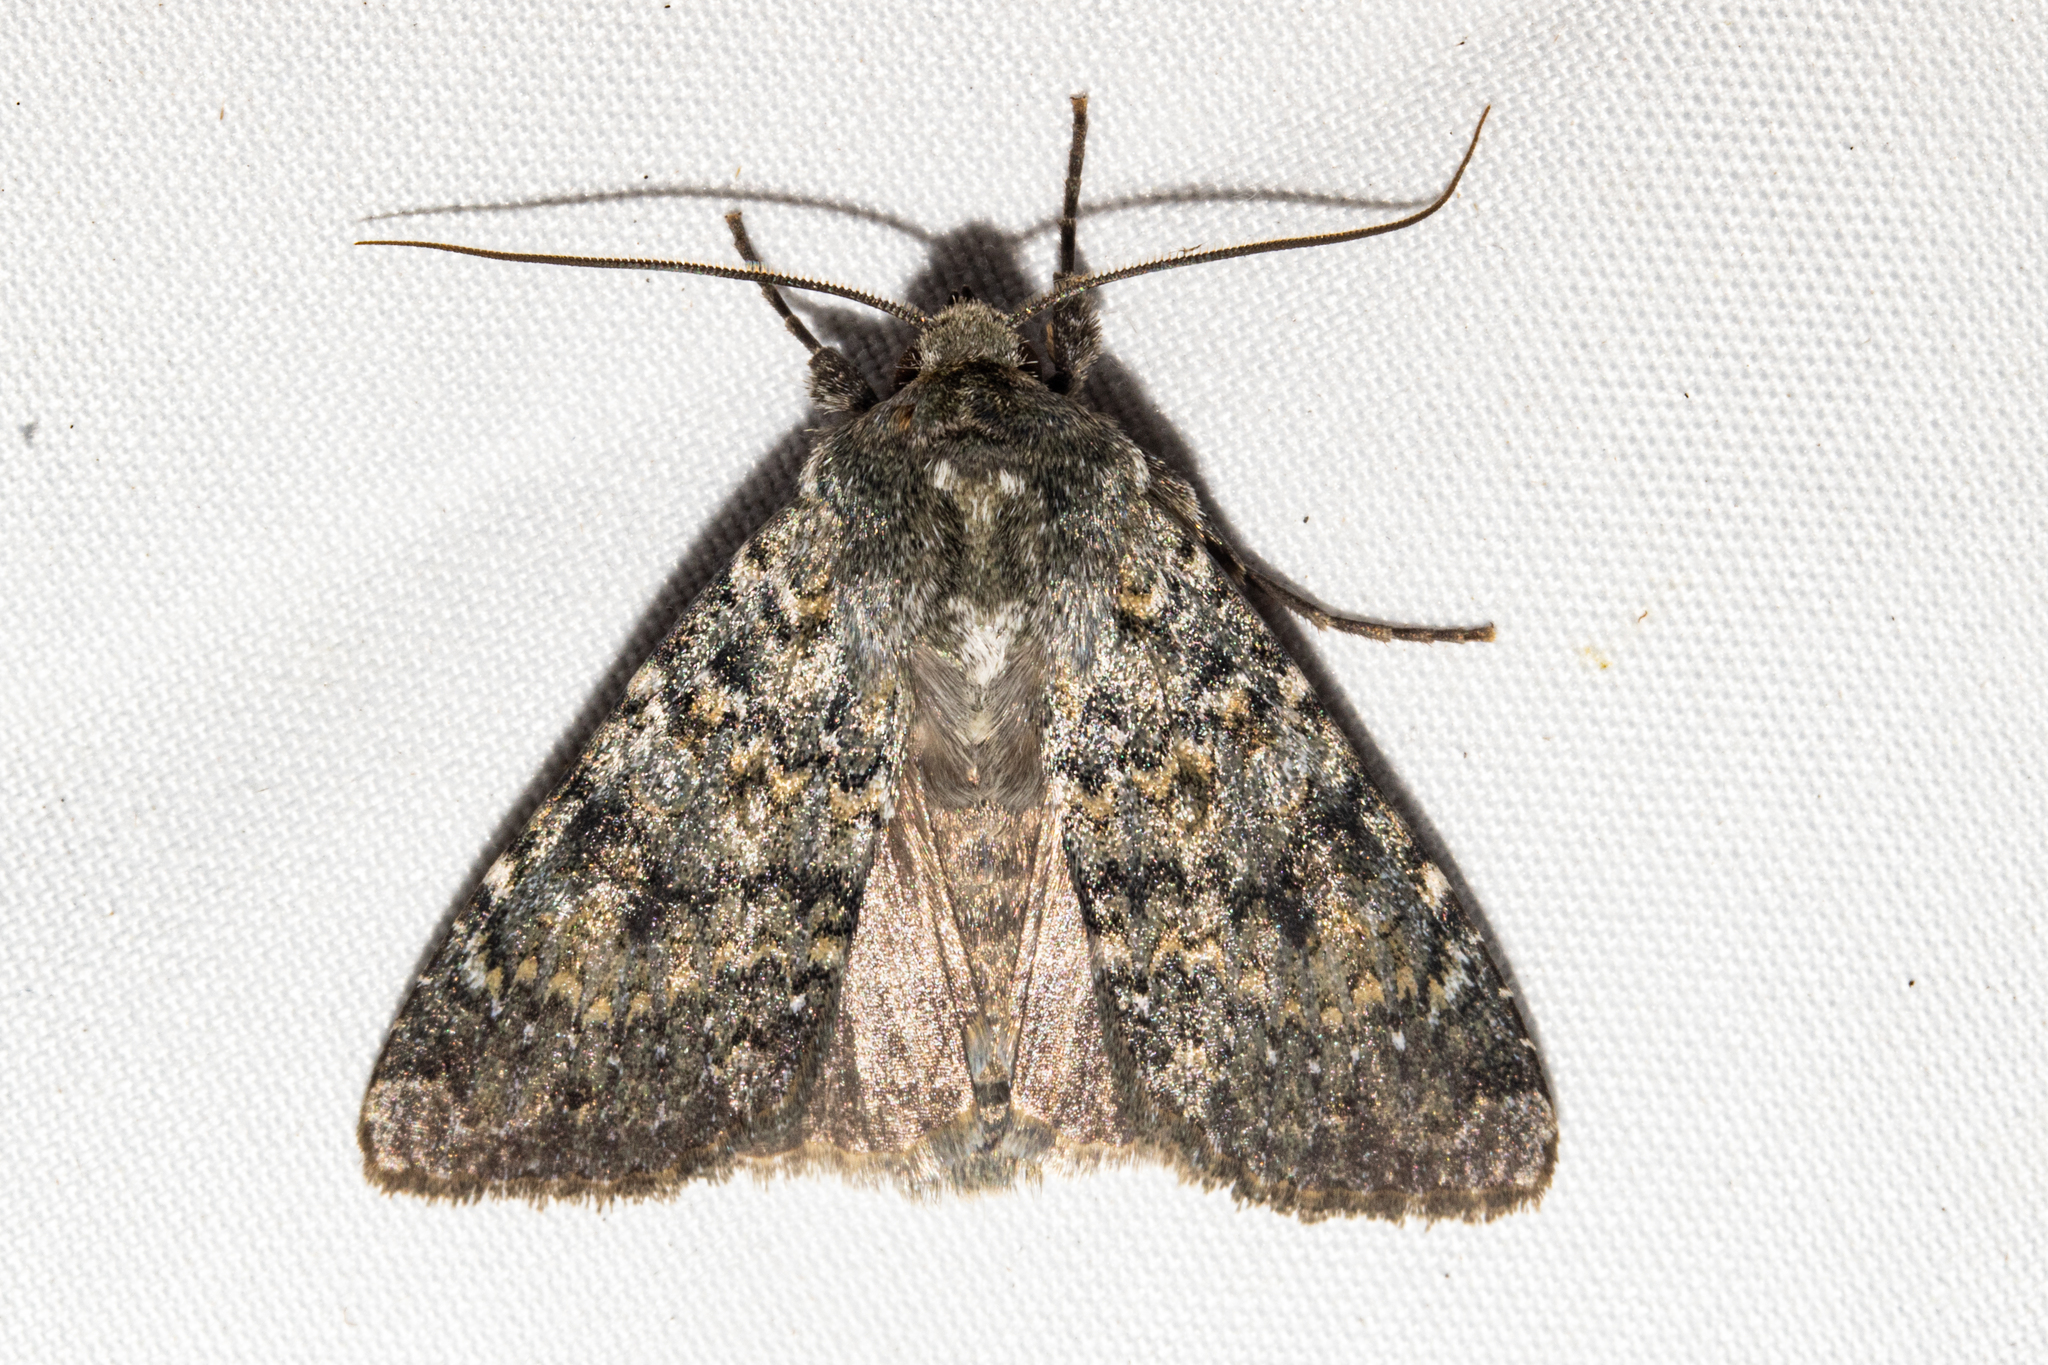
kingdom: Animalia
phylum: Arthropoda
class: Insecta
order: Lepidoptera
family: Noctuidae
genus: Ichneutica
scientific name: Ichneutica
